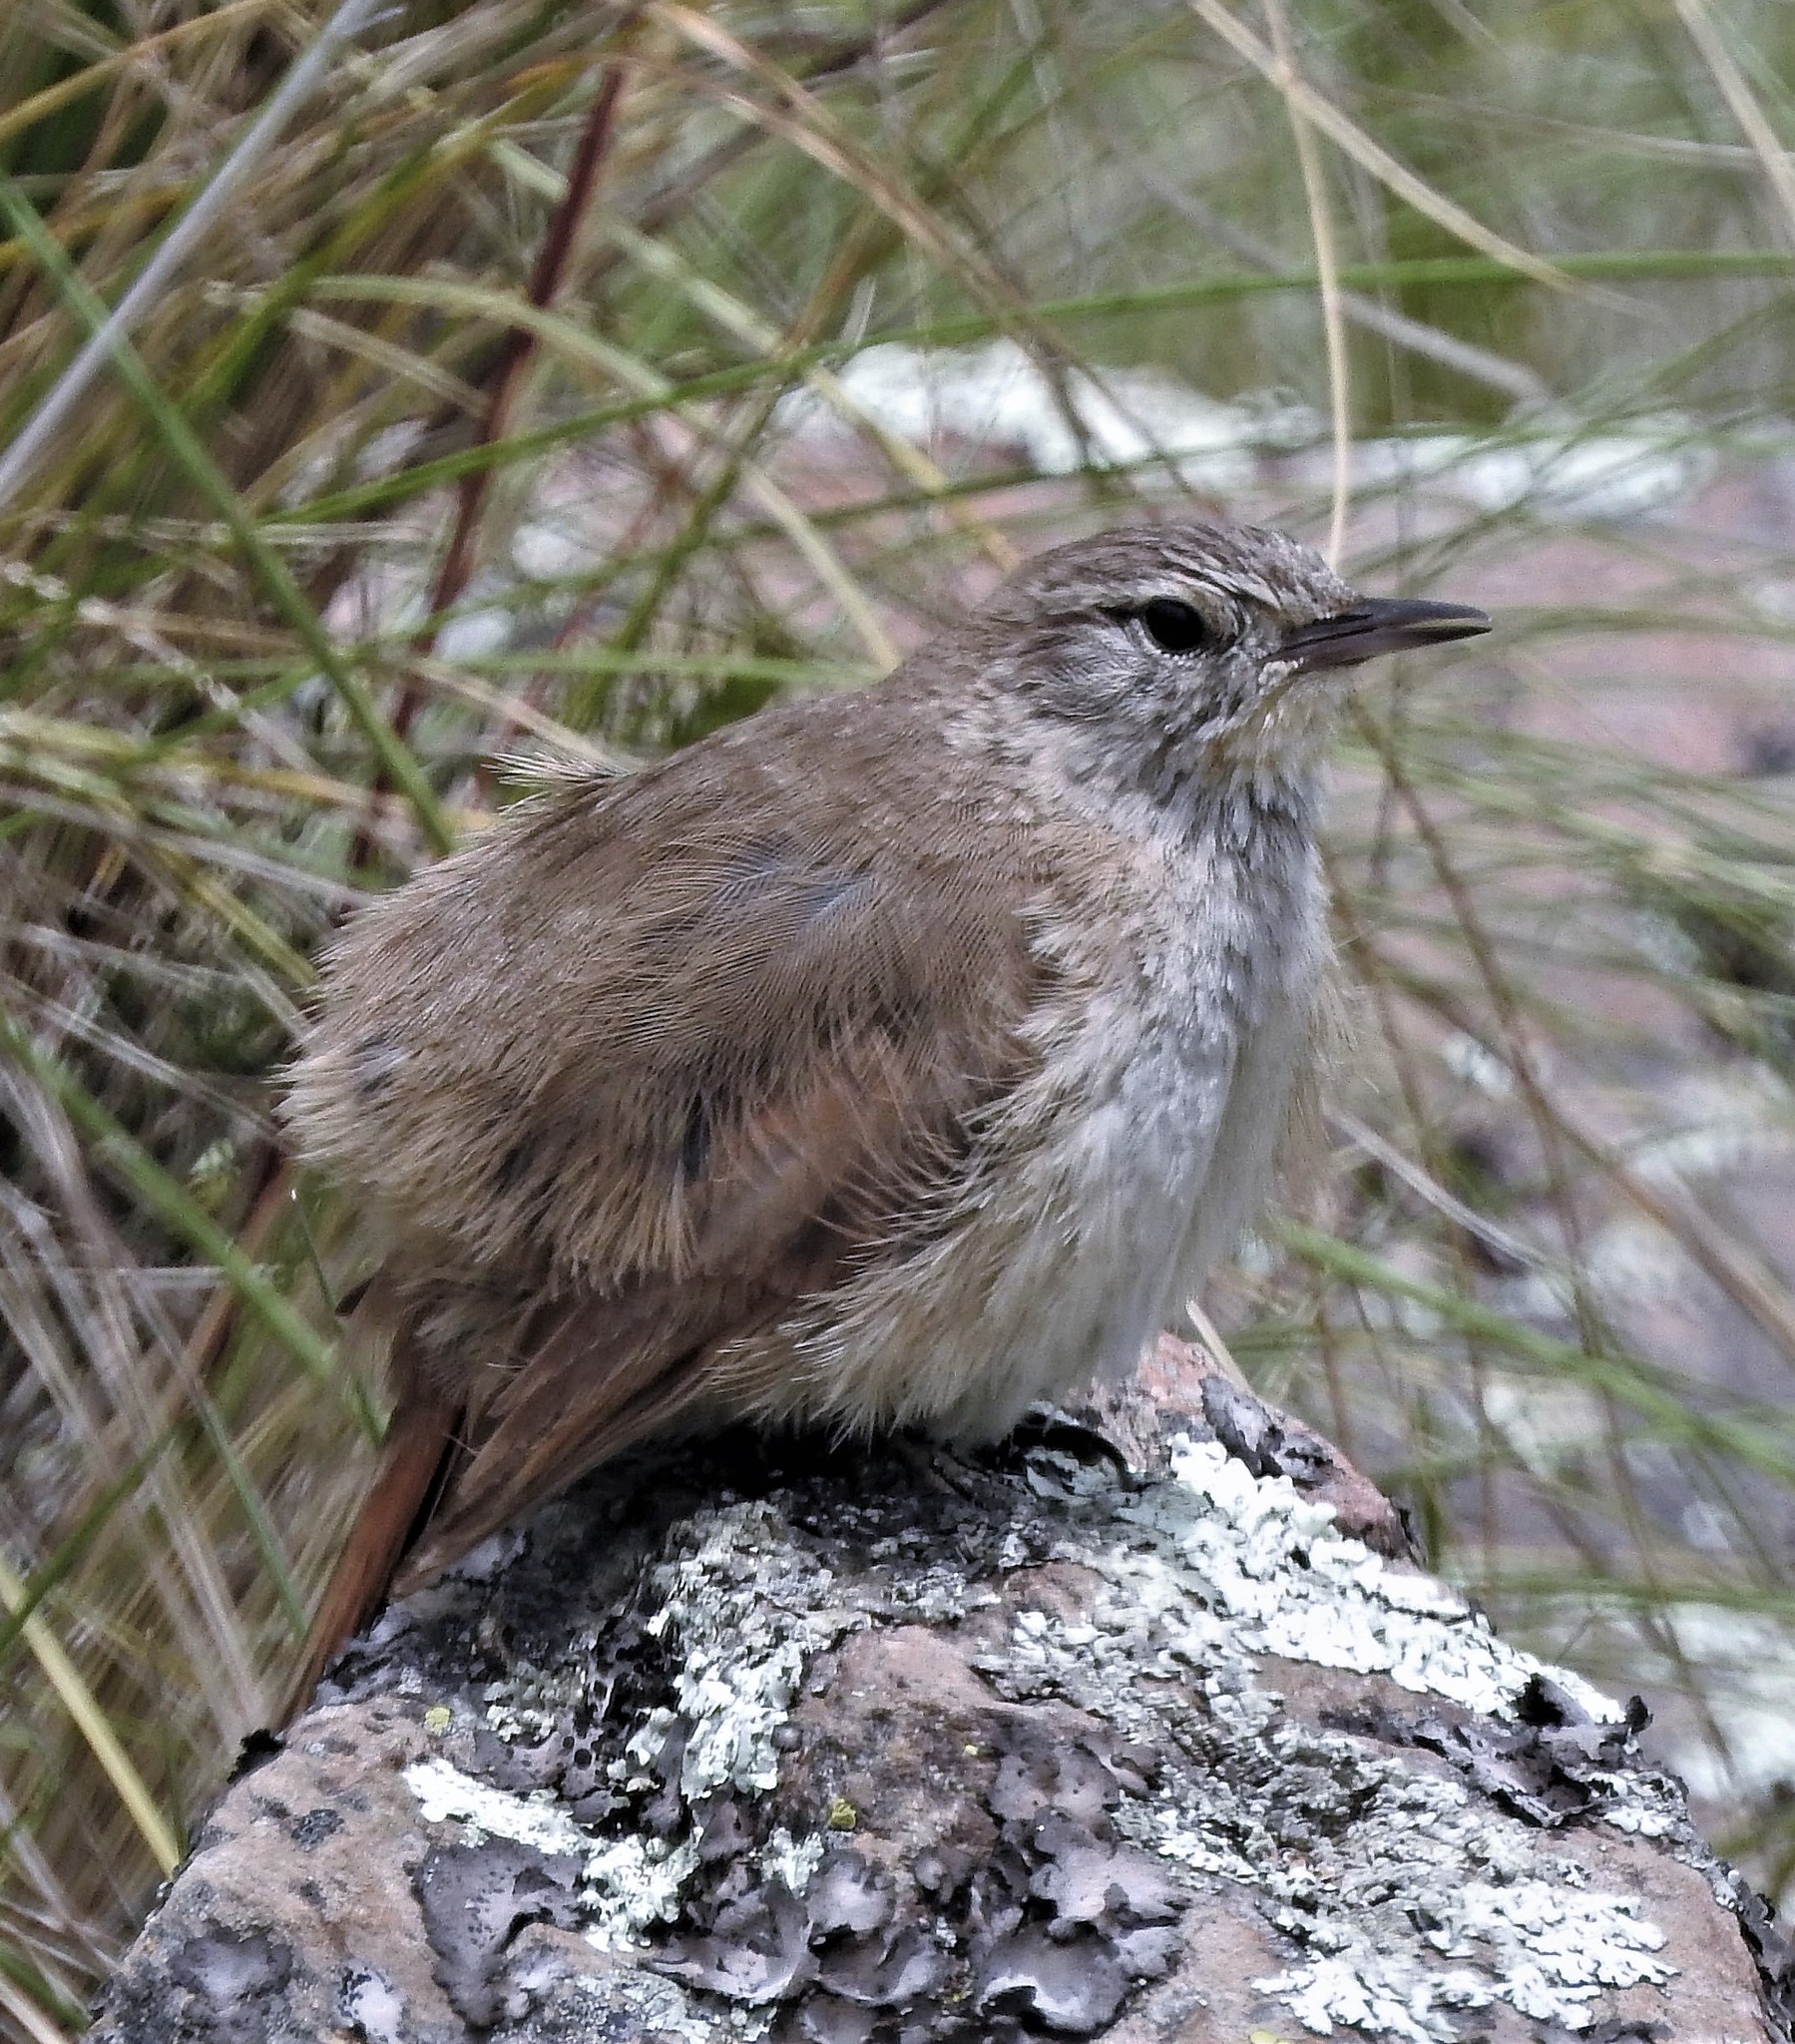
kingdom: Animalia
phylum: Chordata
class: Aves
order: Passeriformes
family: Furnariidae
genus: Asthenes
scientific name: Asthenes modesta
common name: Cordilleran canastero
